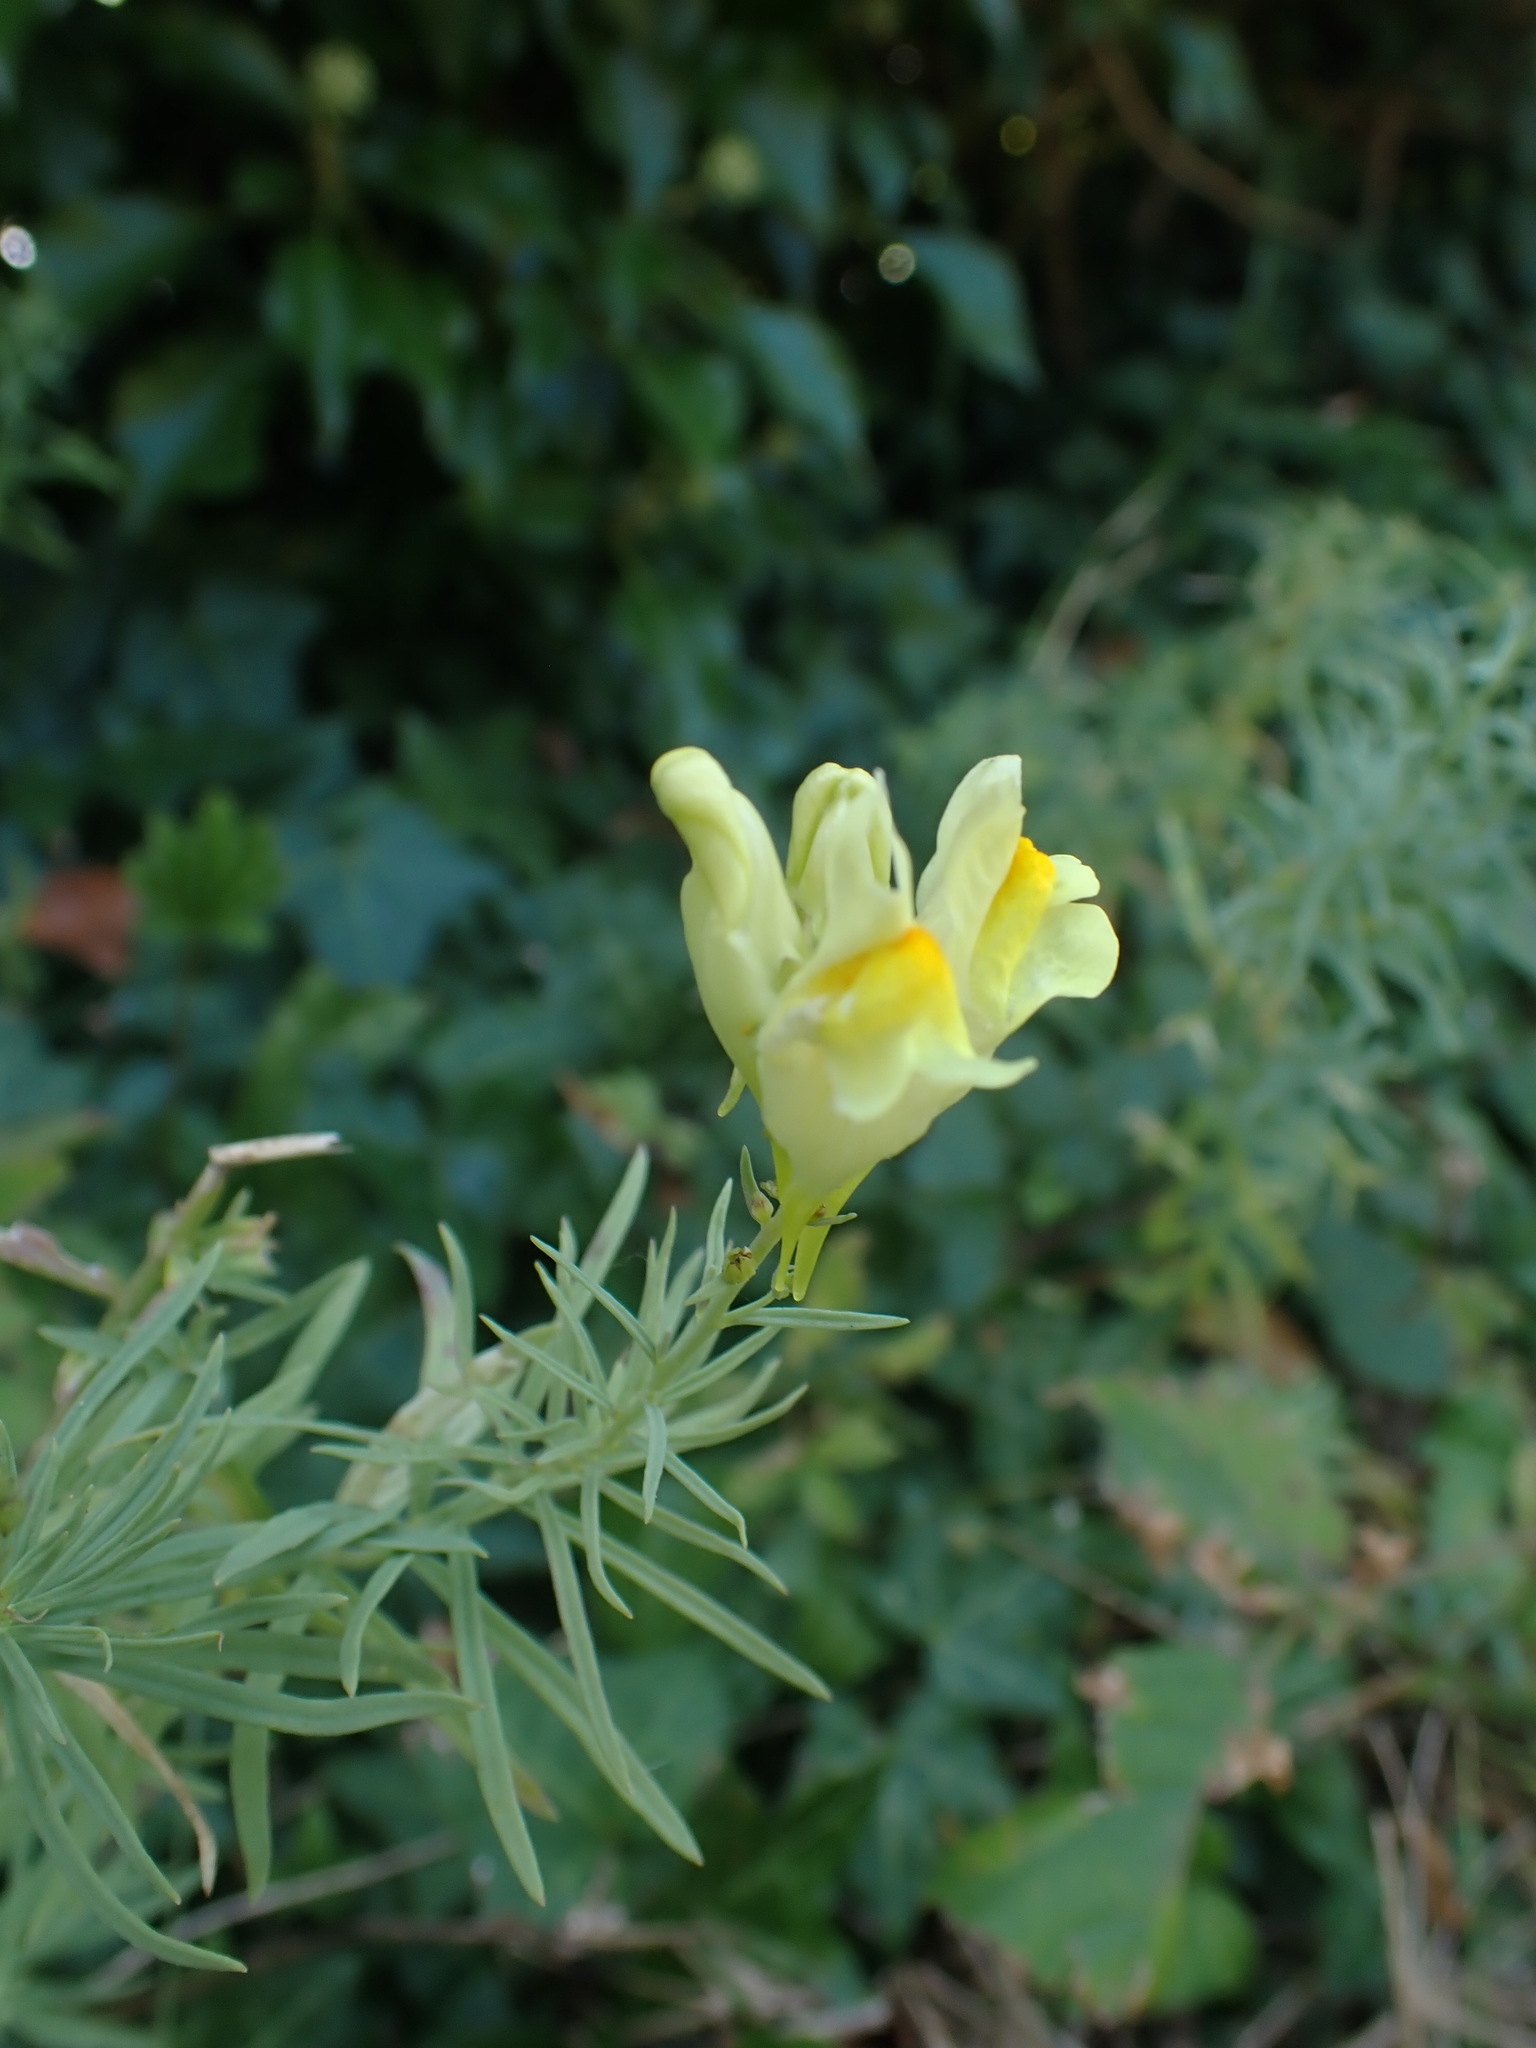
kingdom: Plantae
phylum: Tracheophyta
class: Magnoliopsida
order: Lamiales
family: Plantaginaceae
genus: Linaria
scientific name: Linaria vulgaris
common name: Butter and eggs
